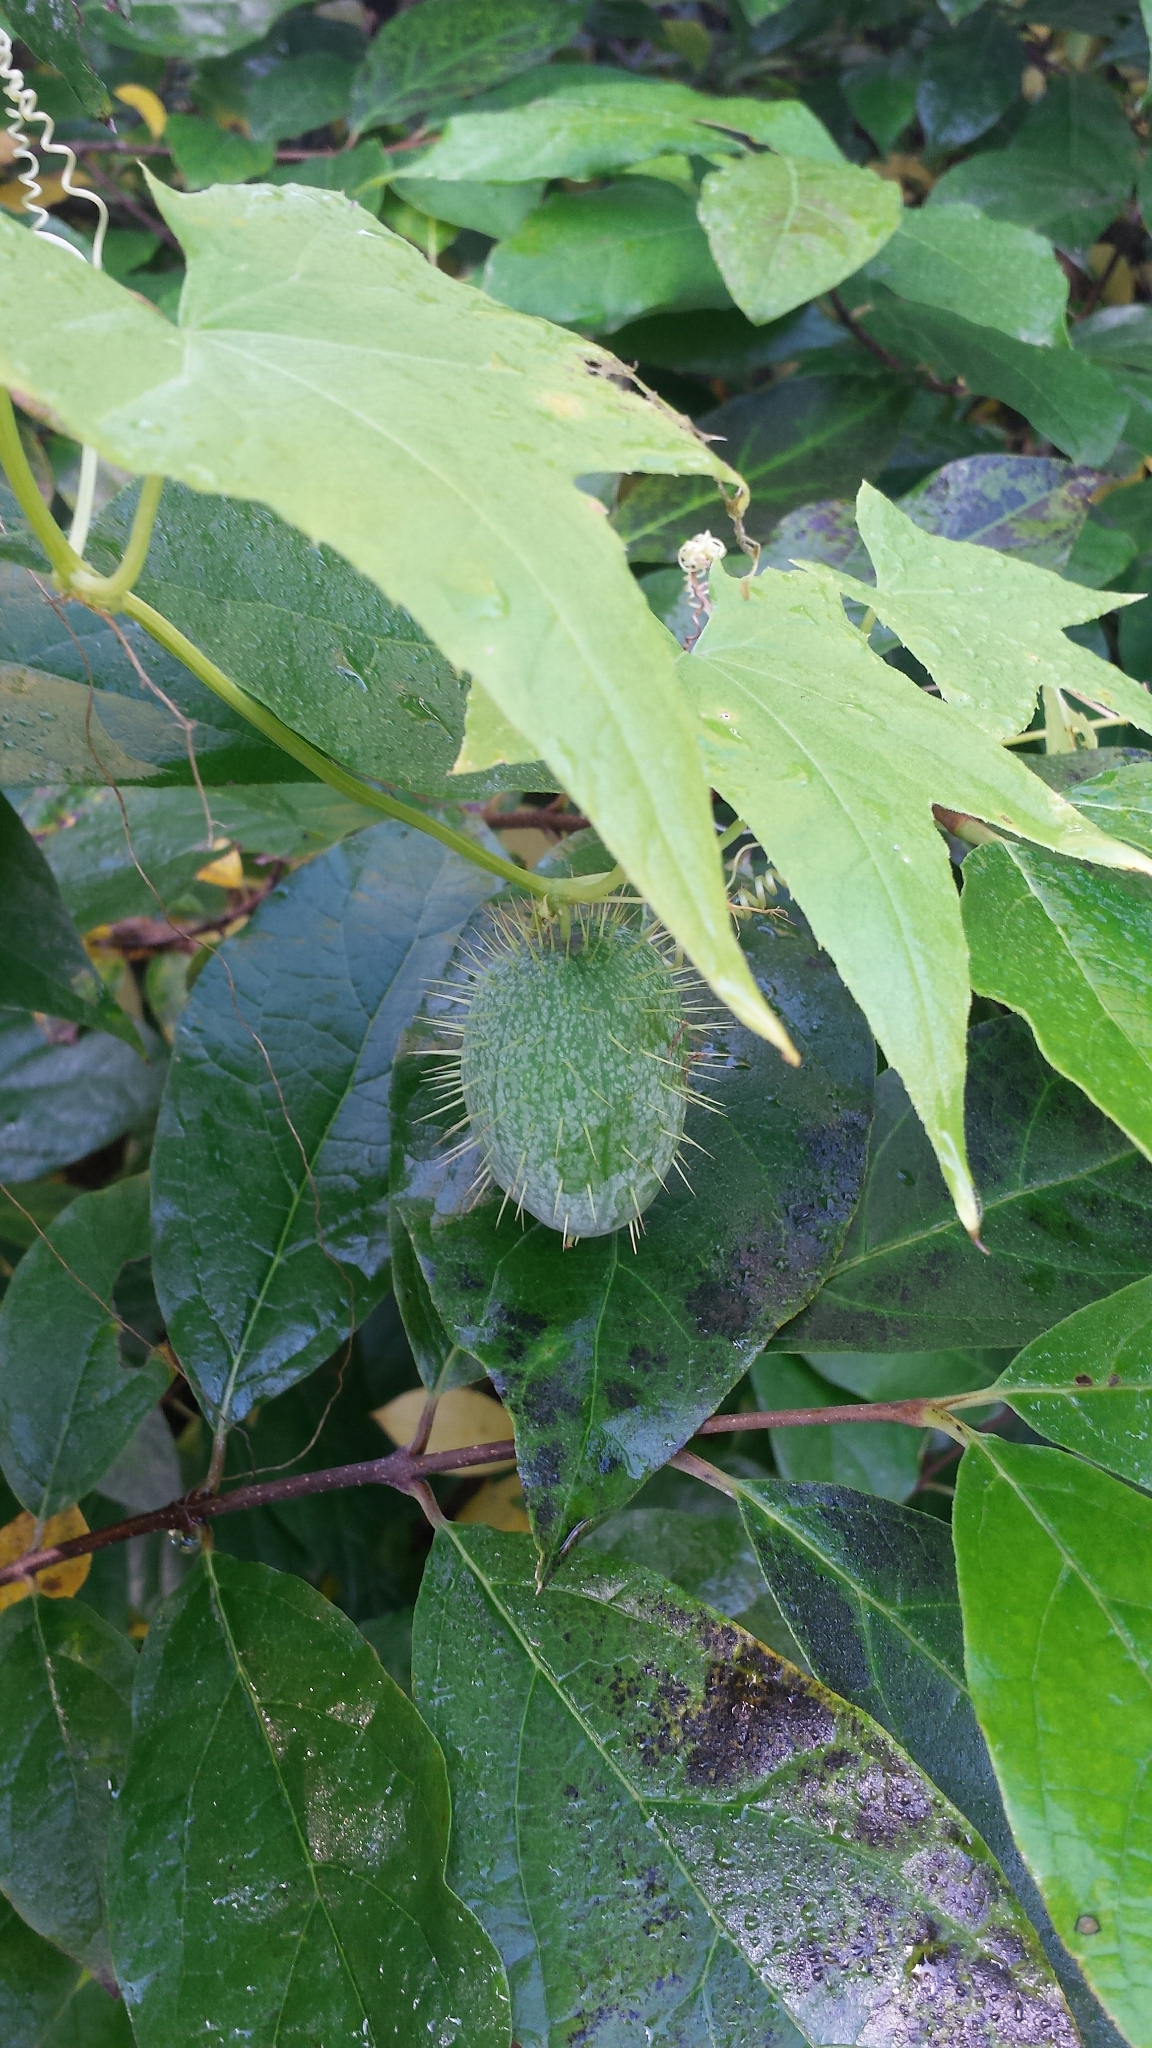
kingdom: Plantae
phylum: Tracheophyta
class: Magnoliopsida
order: Cucurbitales
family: Cucurbitaceae
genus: Echinocystis
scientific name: Echinocystis lobata
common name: Wild cucumber
